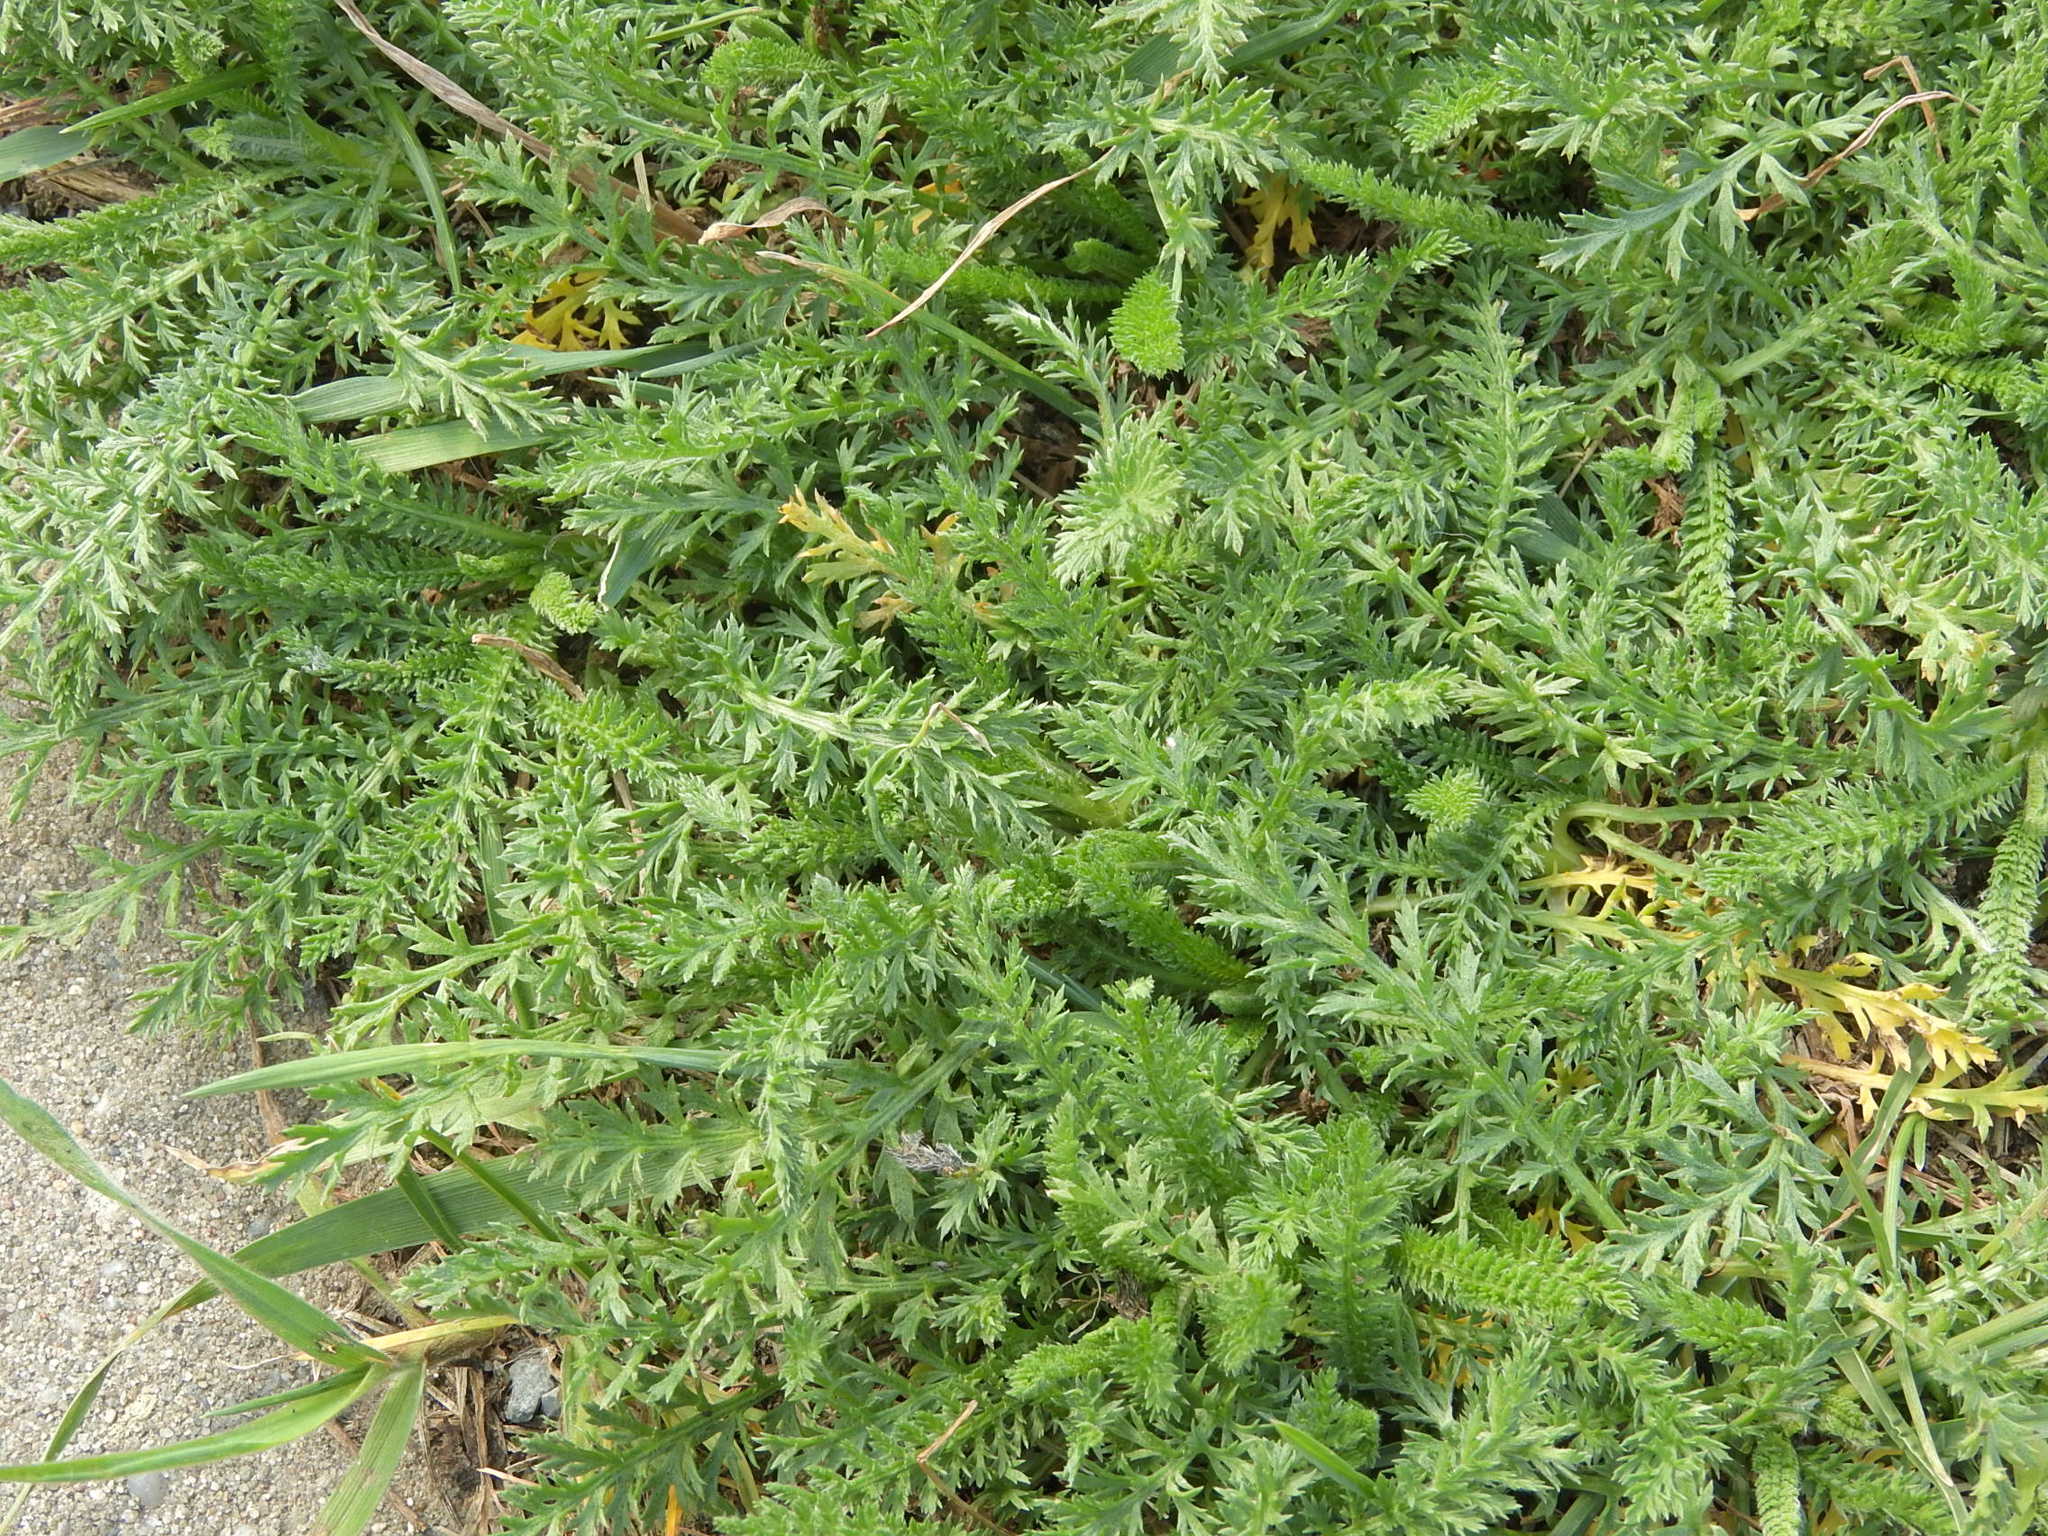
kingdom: Plantae
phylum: Tracheophyta
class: Magnoliopsida
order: Asterales
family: Asteraceae
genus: Achillea
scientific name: Achillea millefolium
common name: Yarrow
